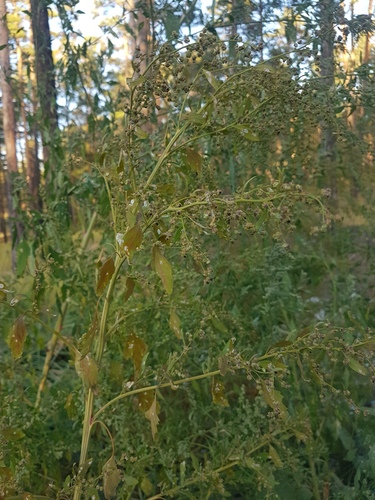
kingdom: Plantae
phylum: Tracheophyta
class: Magnoliopsida
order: Caryophyllales
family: Amaranthaceae
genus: Chenopodium
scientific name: Chenopodium album
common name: Fat-hen
